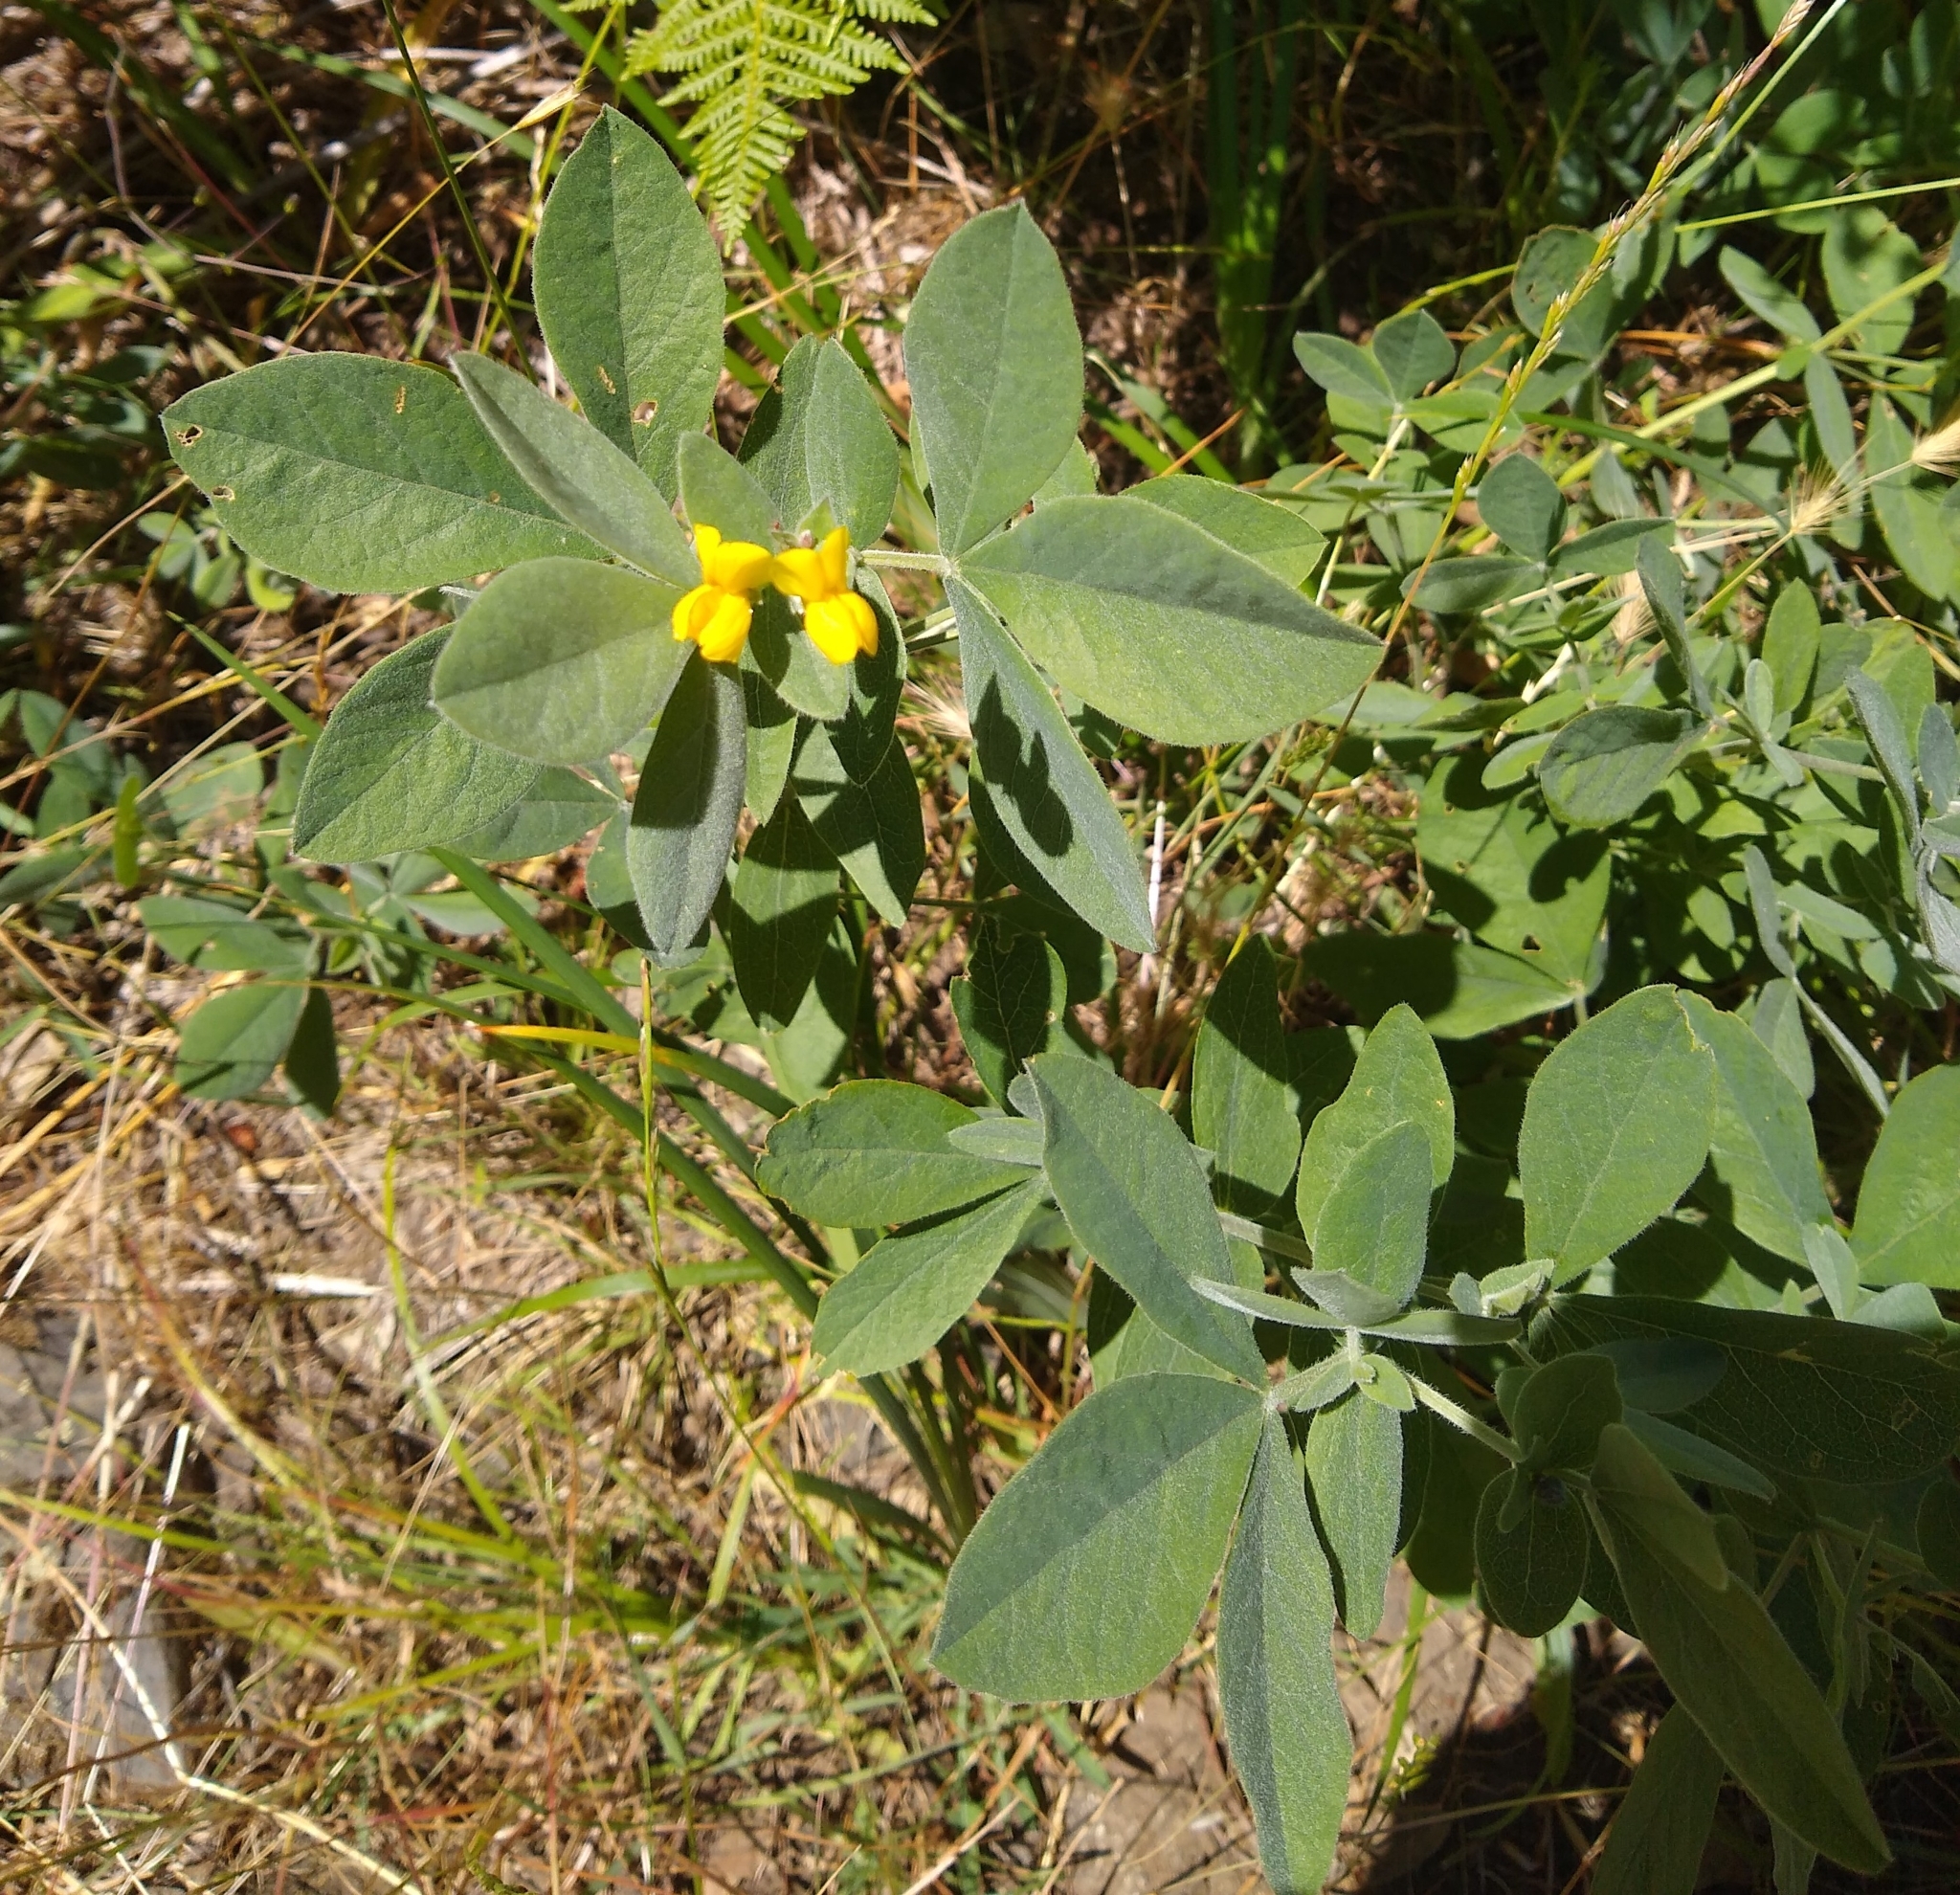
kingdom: Plantae
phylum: Tracheophyta
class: Magnoliopsida
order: Fabales
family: Fabaceae
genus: Thermopsis
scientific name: Thermopsis californica
